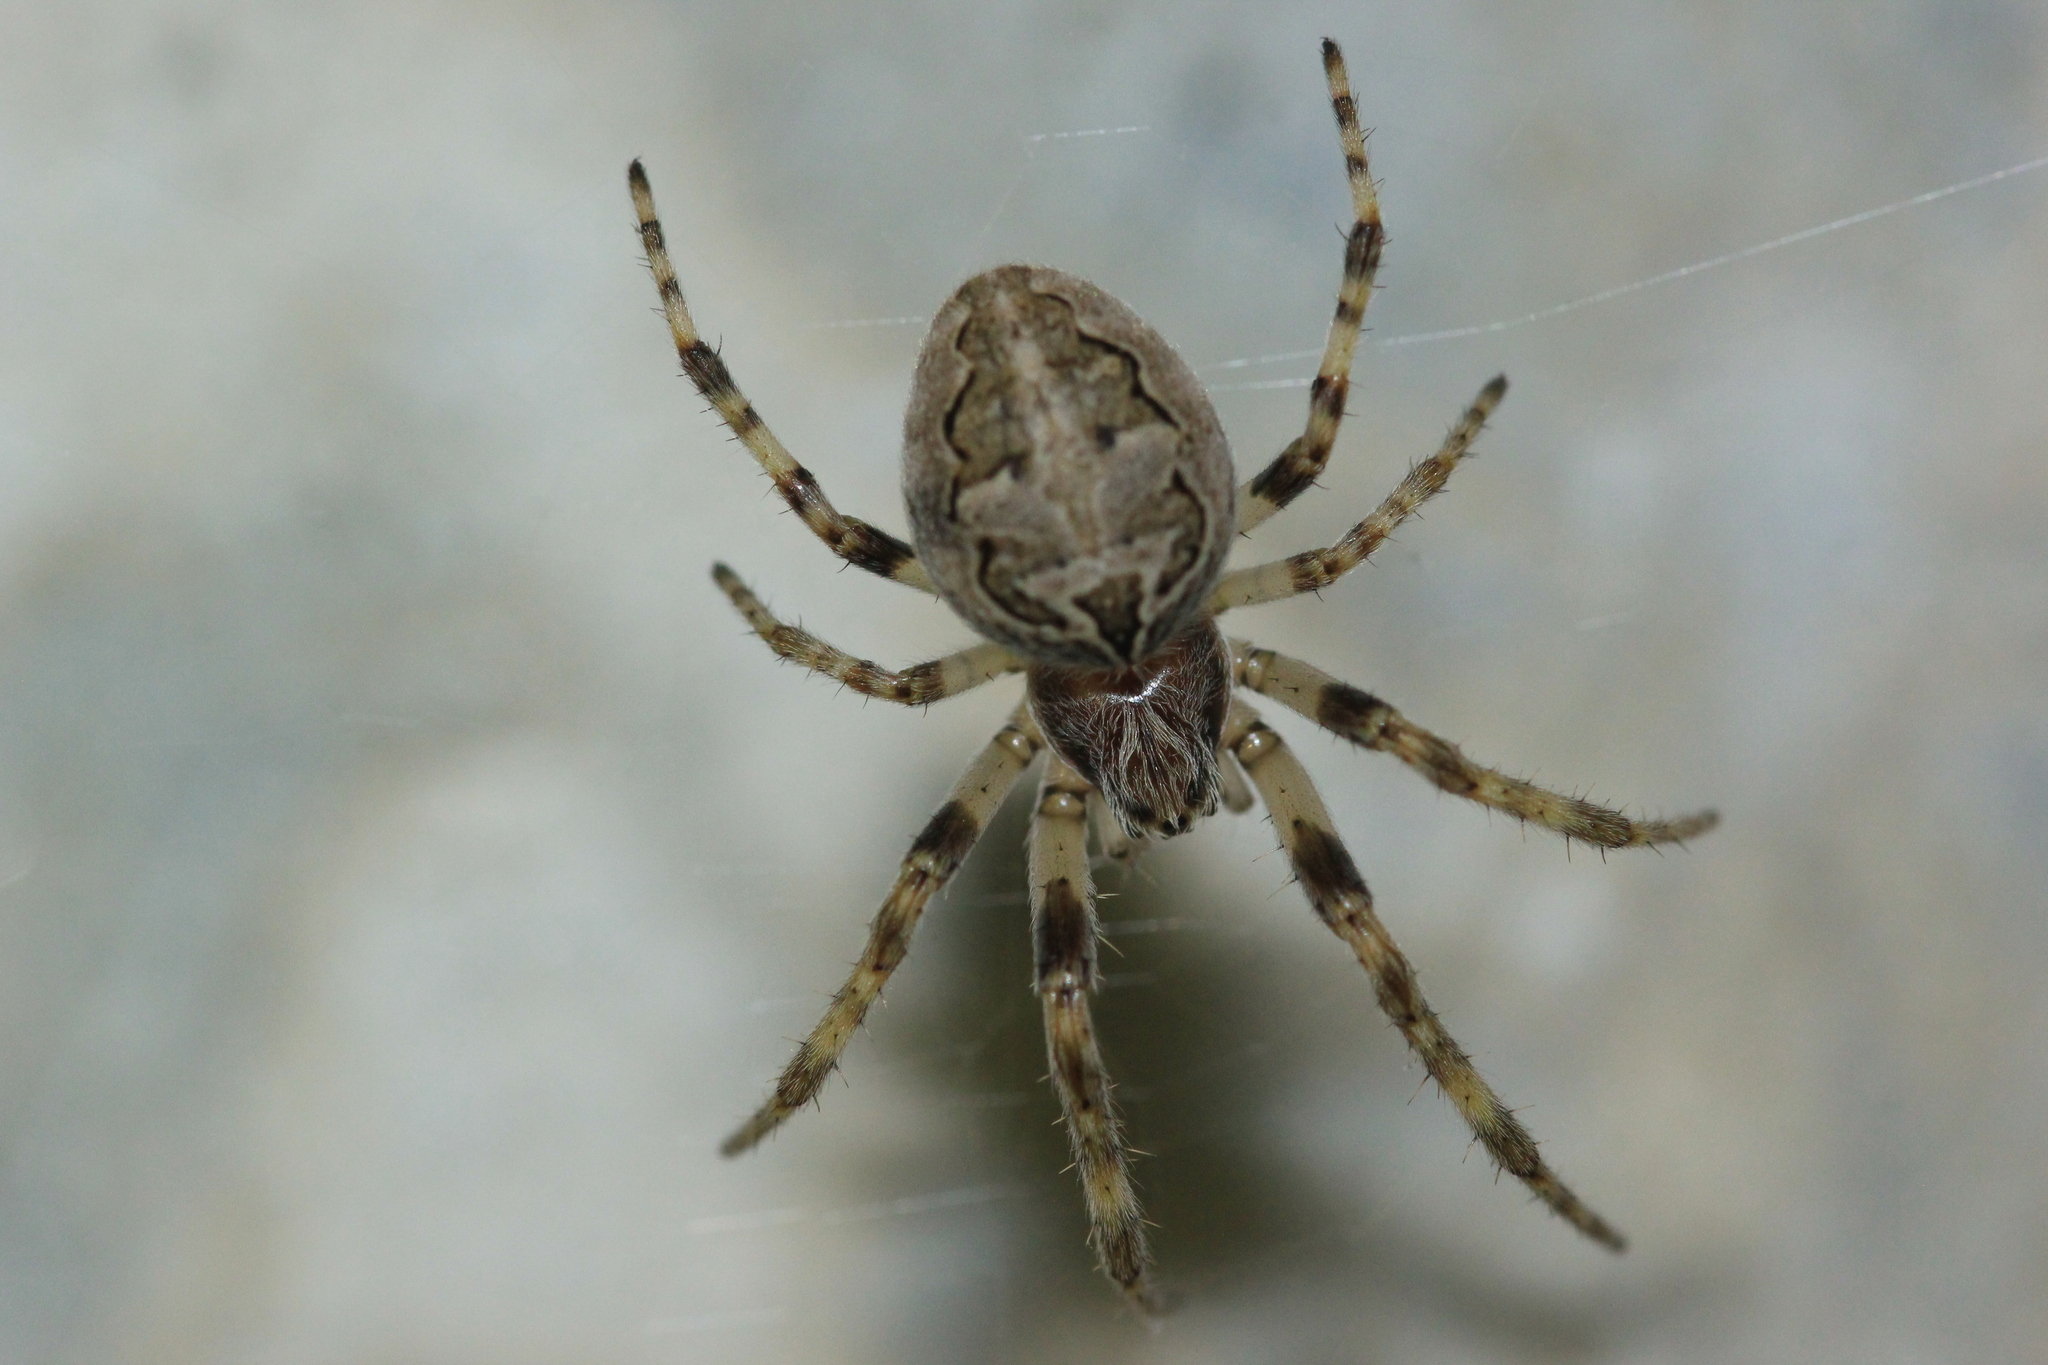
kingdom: Animalia
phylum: Arthropoda
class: Arachnida
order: Araneae
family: Araneidae
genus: Larinioides
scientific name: Larinioides sclopetarius
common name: Bridge orbweaver
